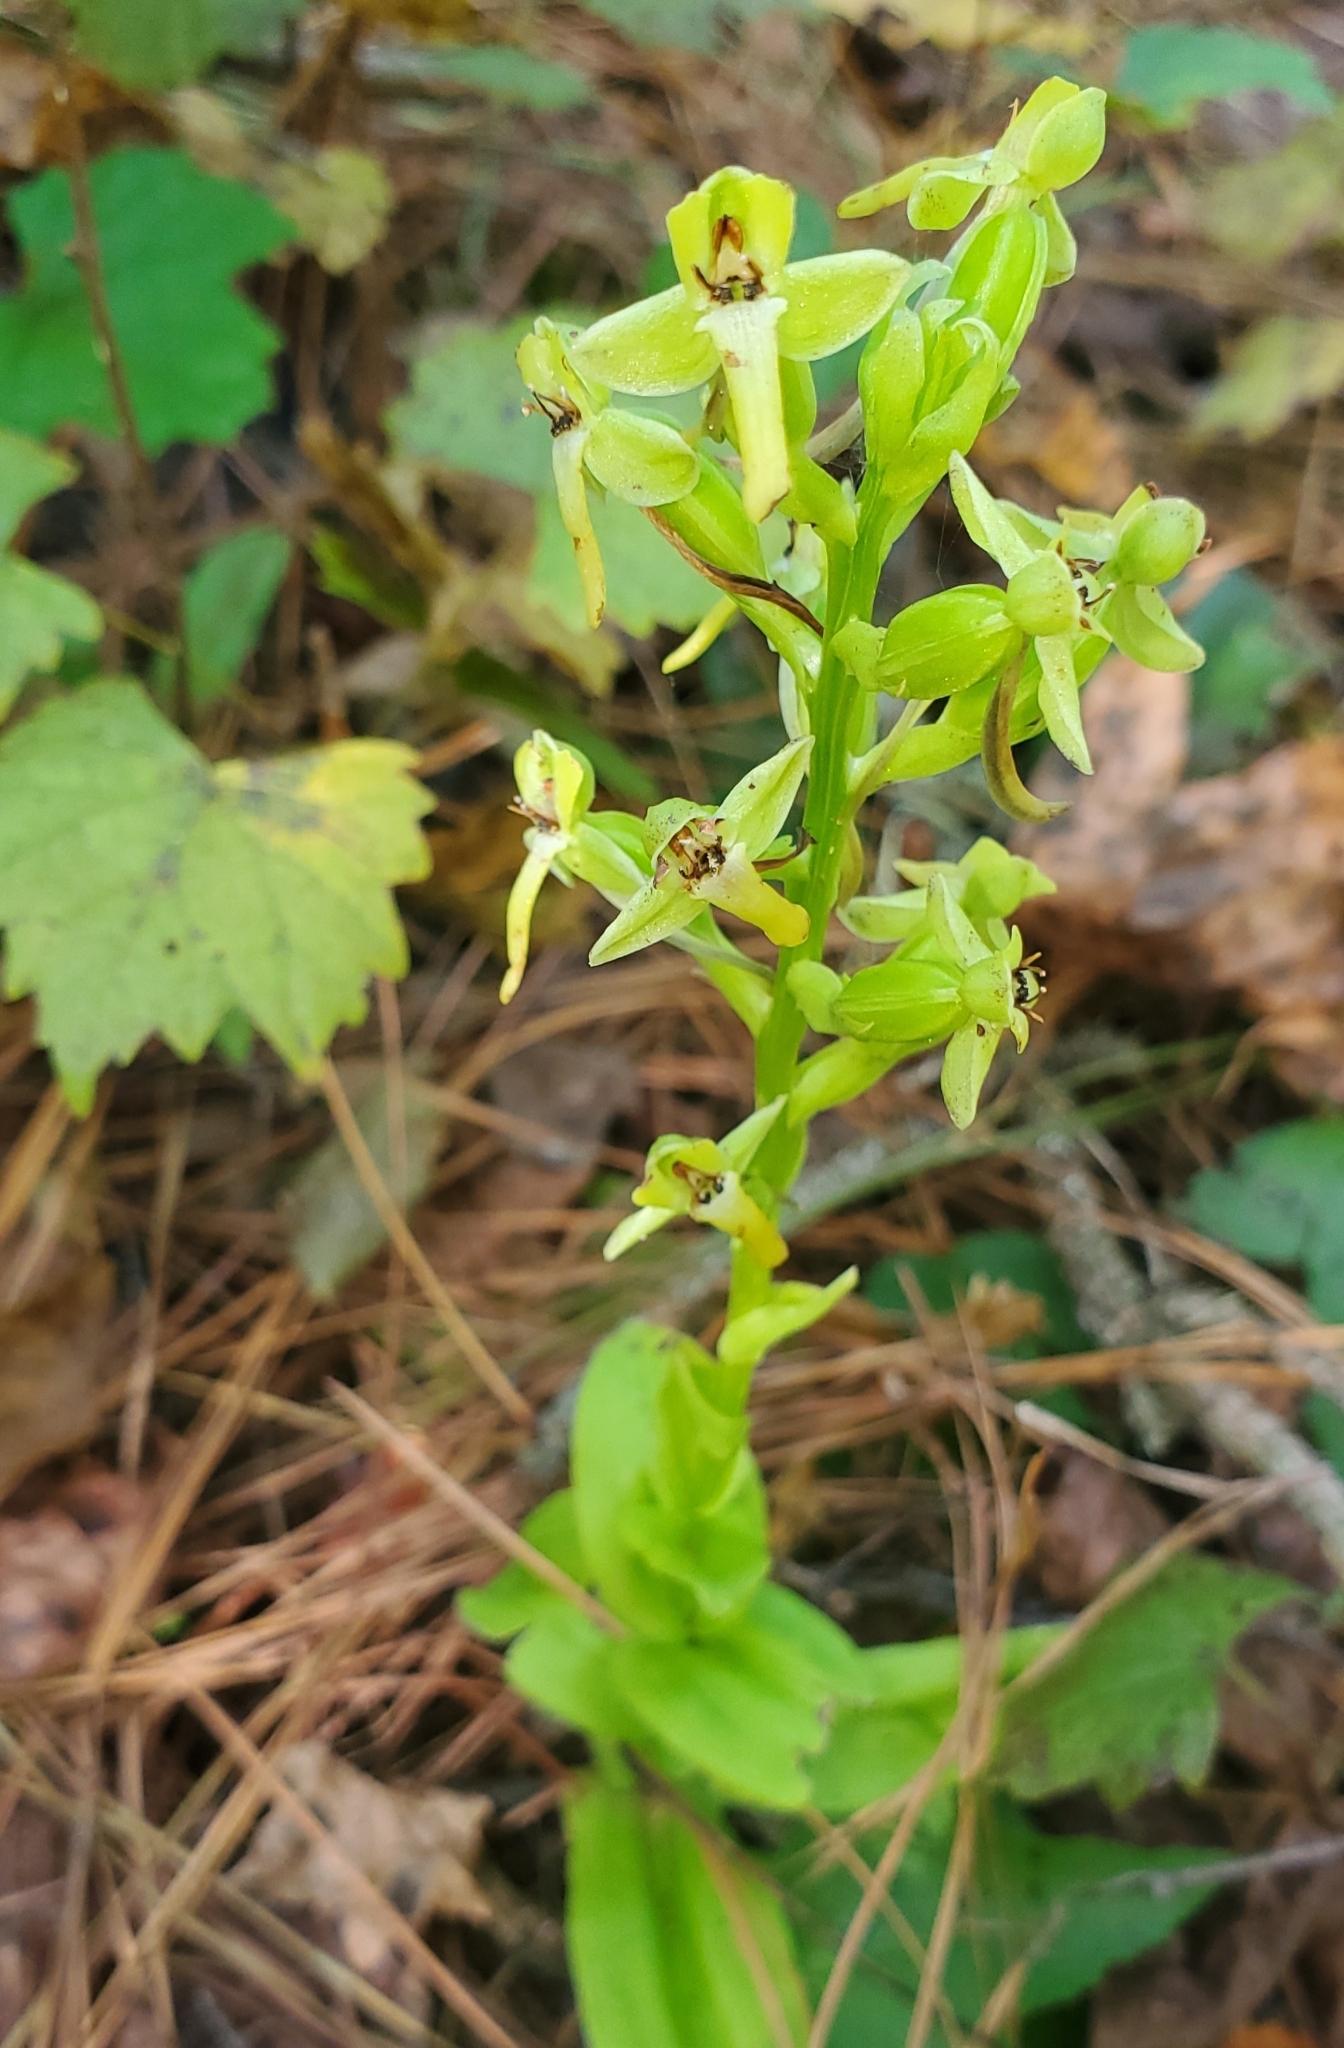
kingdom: Plantae
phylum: Tracheophyta
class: Liliopsida
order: Asparagales
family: Orchidaceae
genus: Habenaria
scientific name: Habenaria floribunda
